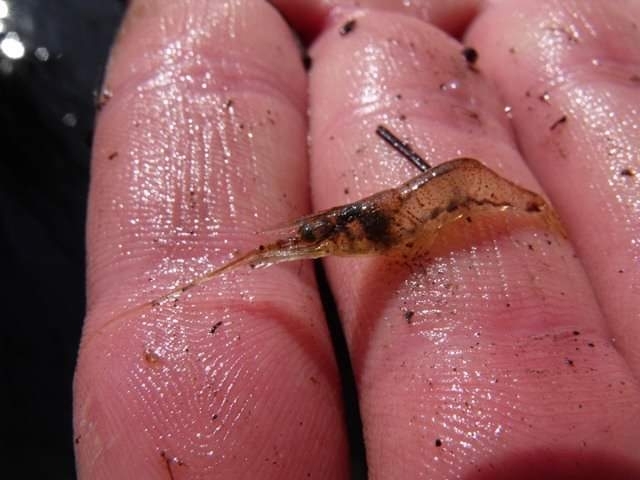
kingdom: Animalia
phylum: Arthropoda
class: Malacostraca
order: Decapoda
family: Palaemonidae
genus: Palaemon
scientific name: Palaemon adspersus
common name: Baltic prawn
